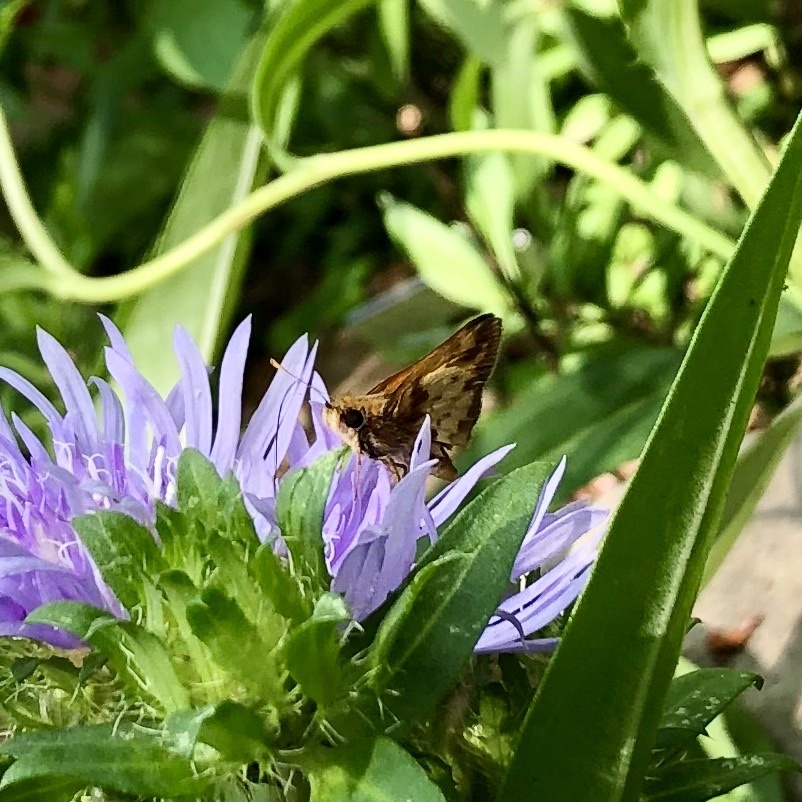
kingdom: Animalia
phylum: Arthropoda
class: Insecta
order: Lepidoptera
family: Hesperiidae
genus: Lon
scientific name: Lon zabulon
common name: Zabulon skipper
